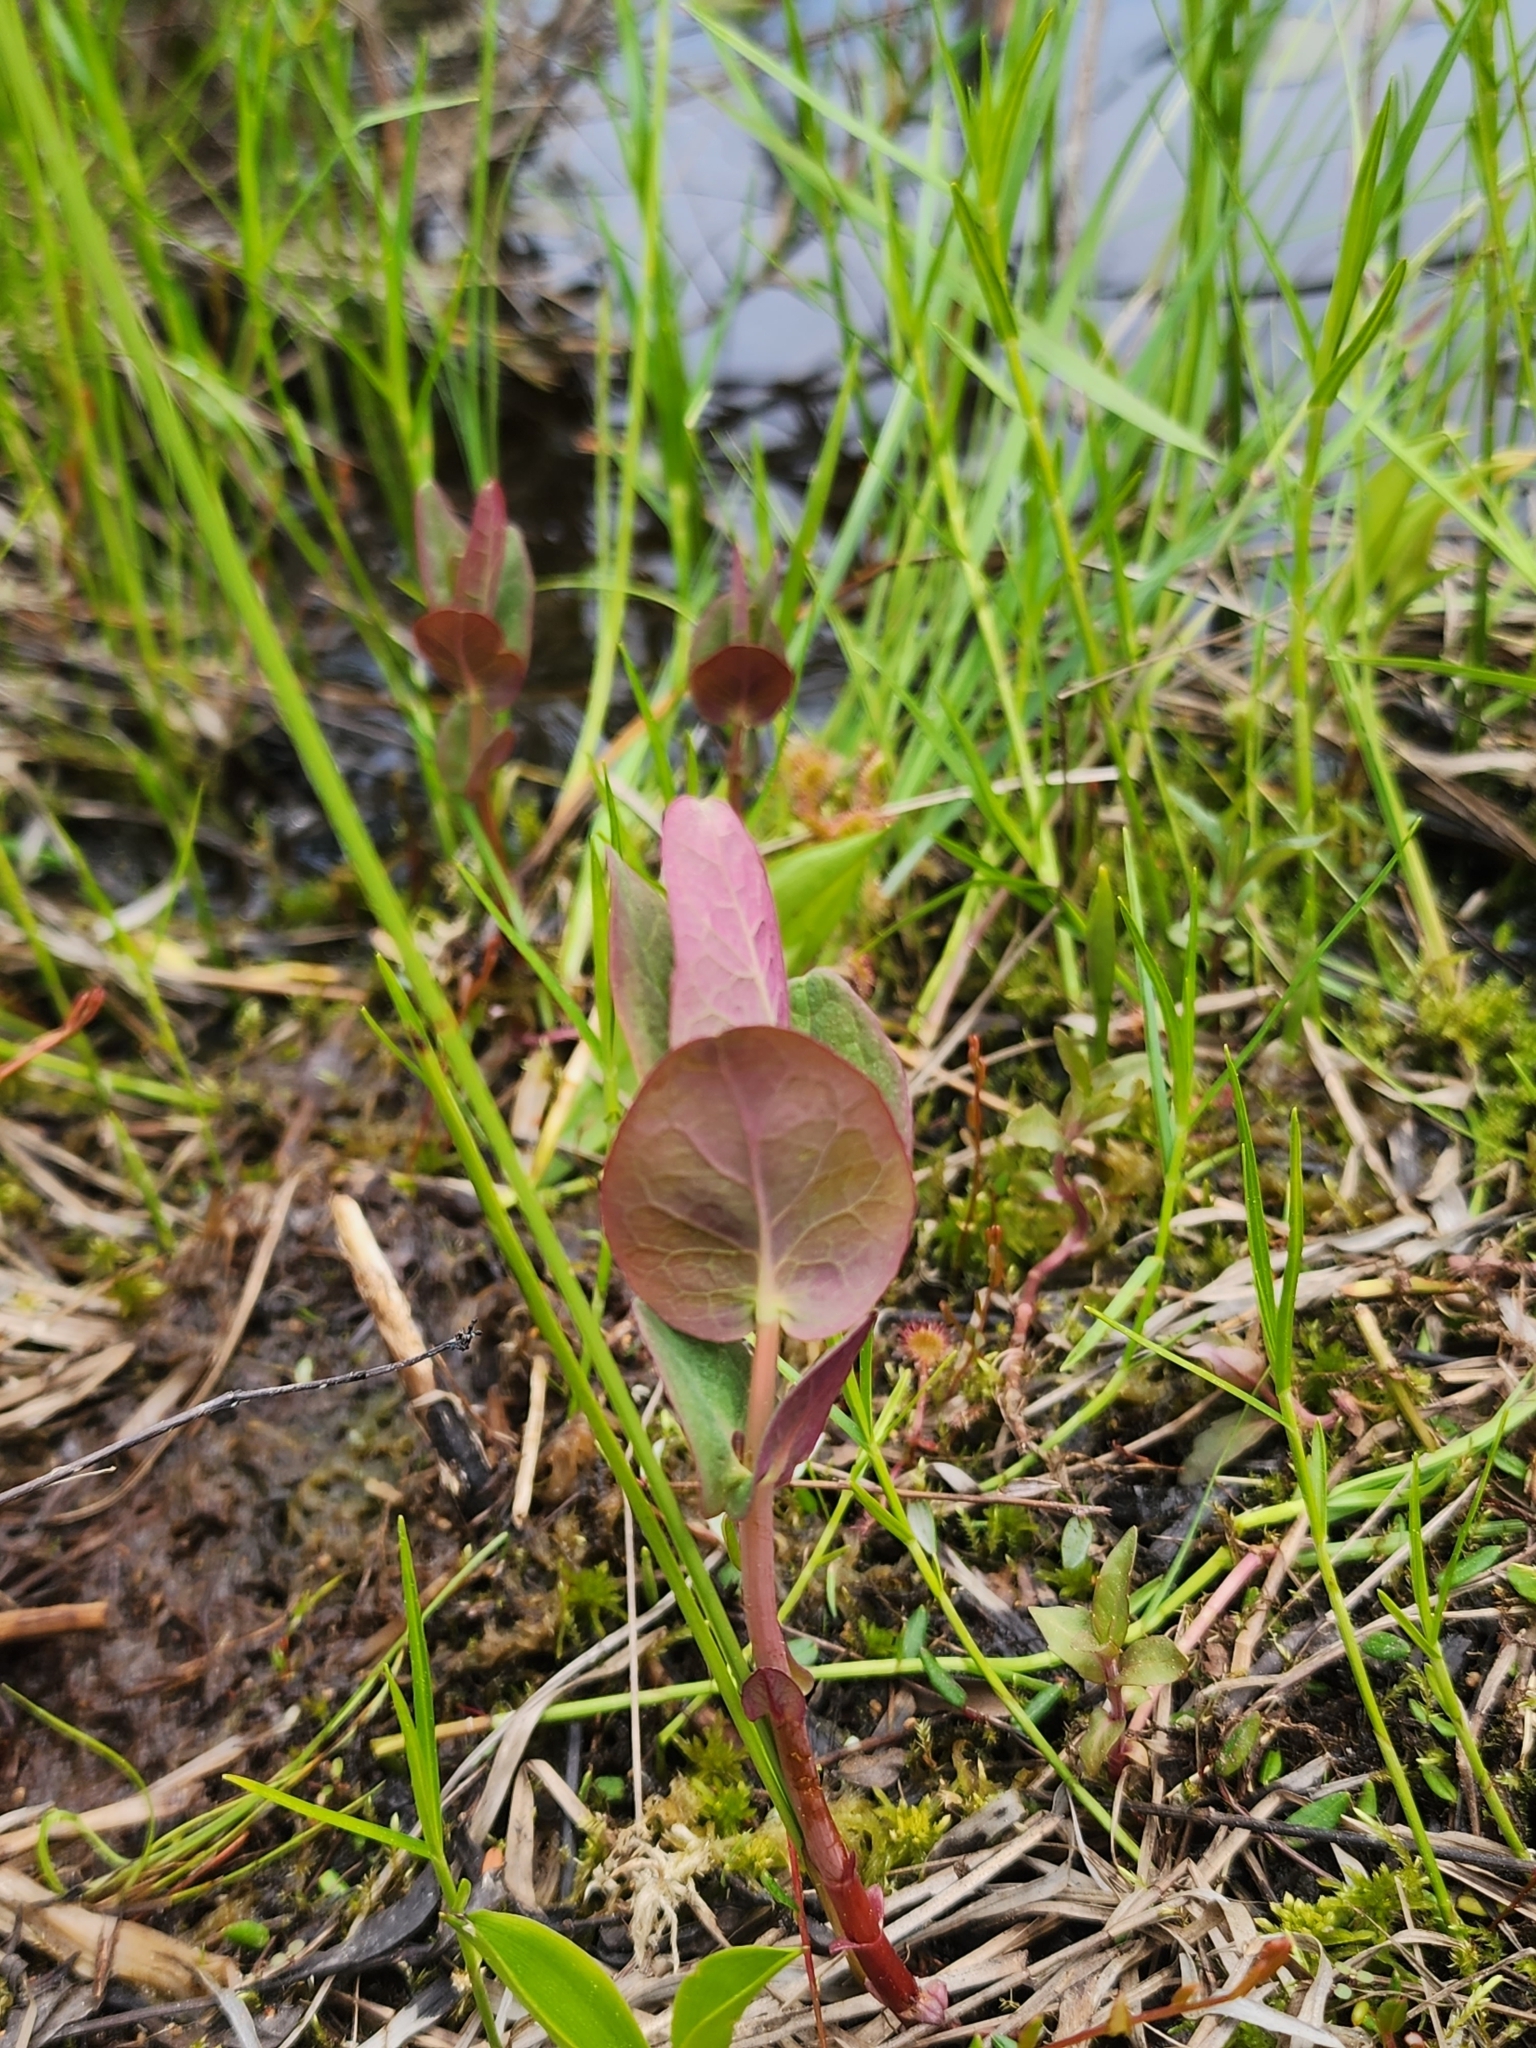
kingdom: Plantae
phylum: Tracheophyta
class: Magnoliopsida
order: Malpighiales
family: Hypericaceae
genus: Triadenum
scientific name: Triadenum fraseri
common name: Fraser's marsh st. johnswort
